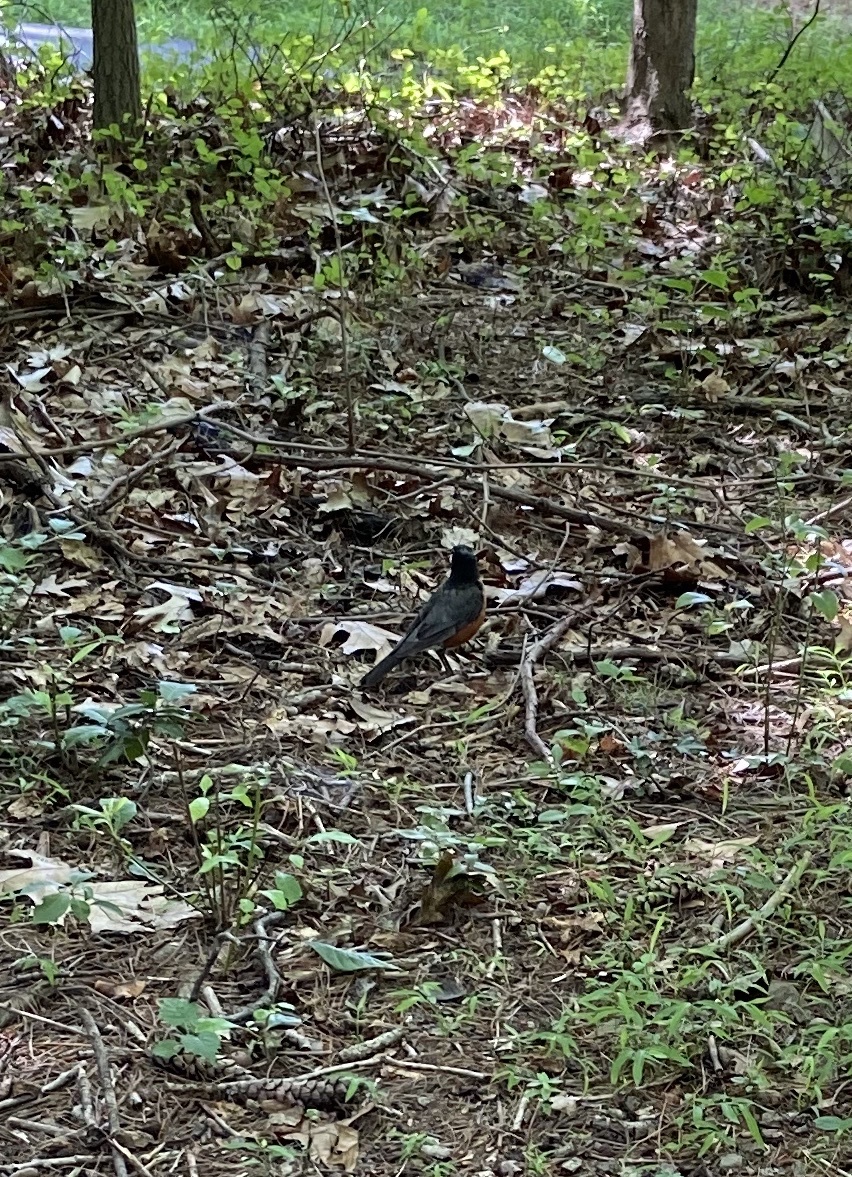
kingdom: Animalia
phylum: Chordata
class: Aves
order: Passeriformes
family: Turdidae
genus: Turdus
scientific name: Turdus migratorius
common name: American robin
